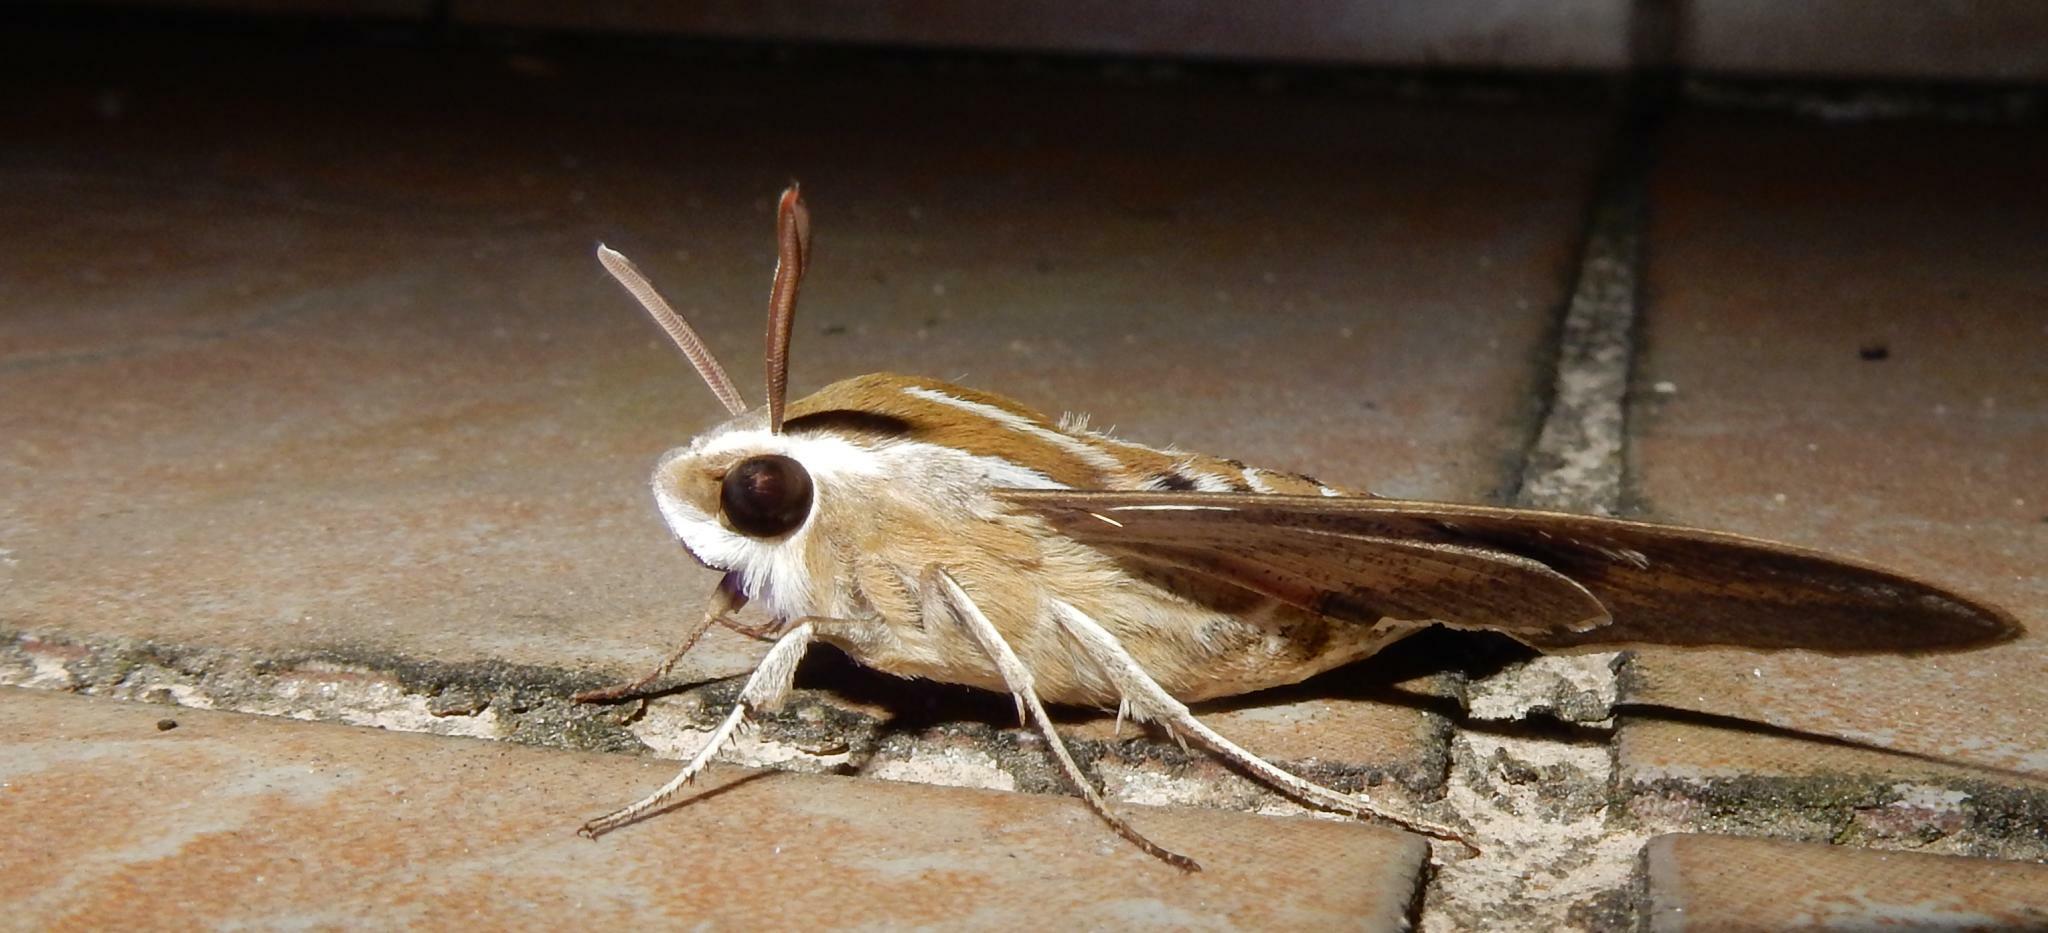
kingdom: Animalia
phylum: Arthropoda
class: Insecta
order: Lepidoptera
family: Sphingidae
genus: Hyles
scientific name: Hyles livornica
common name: Striped hawk-moth
